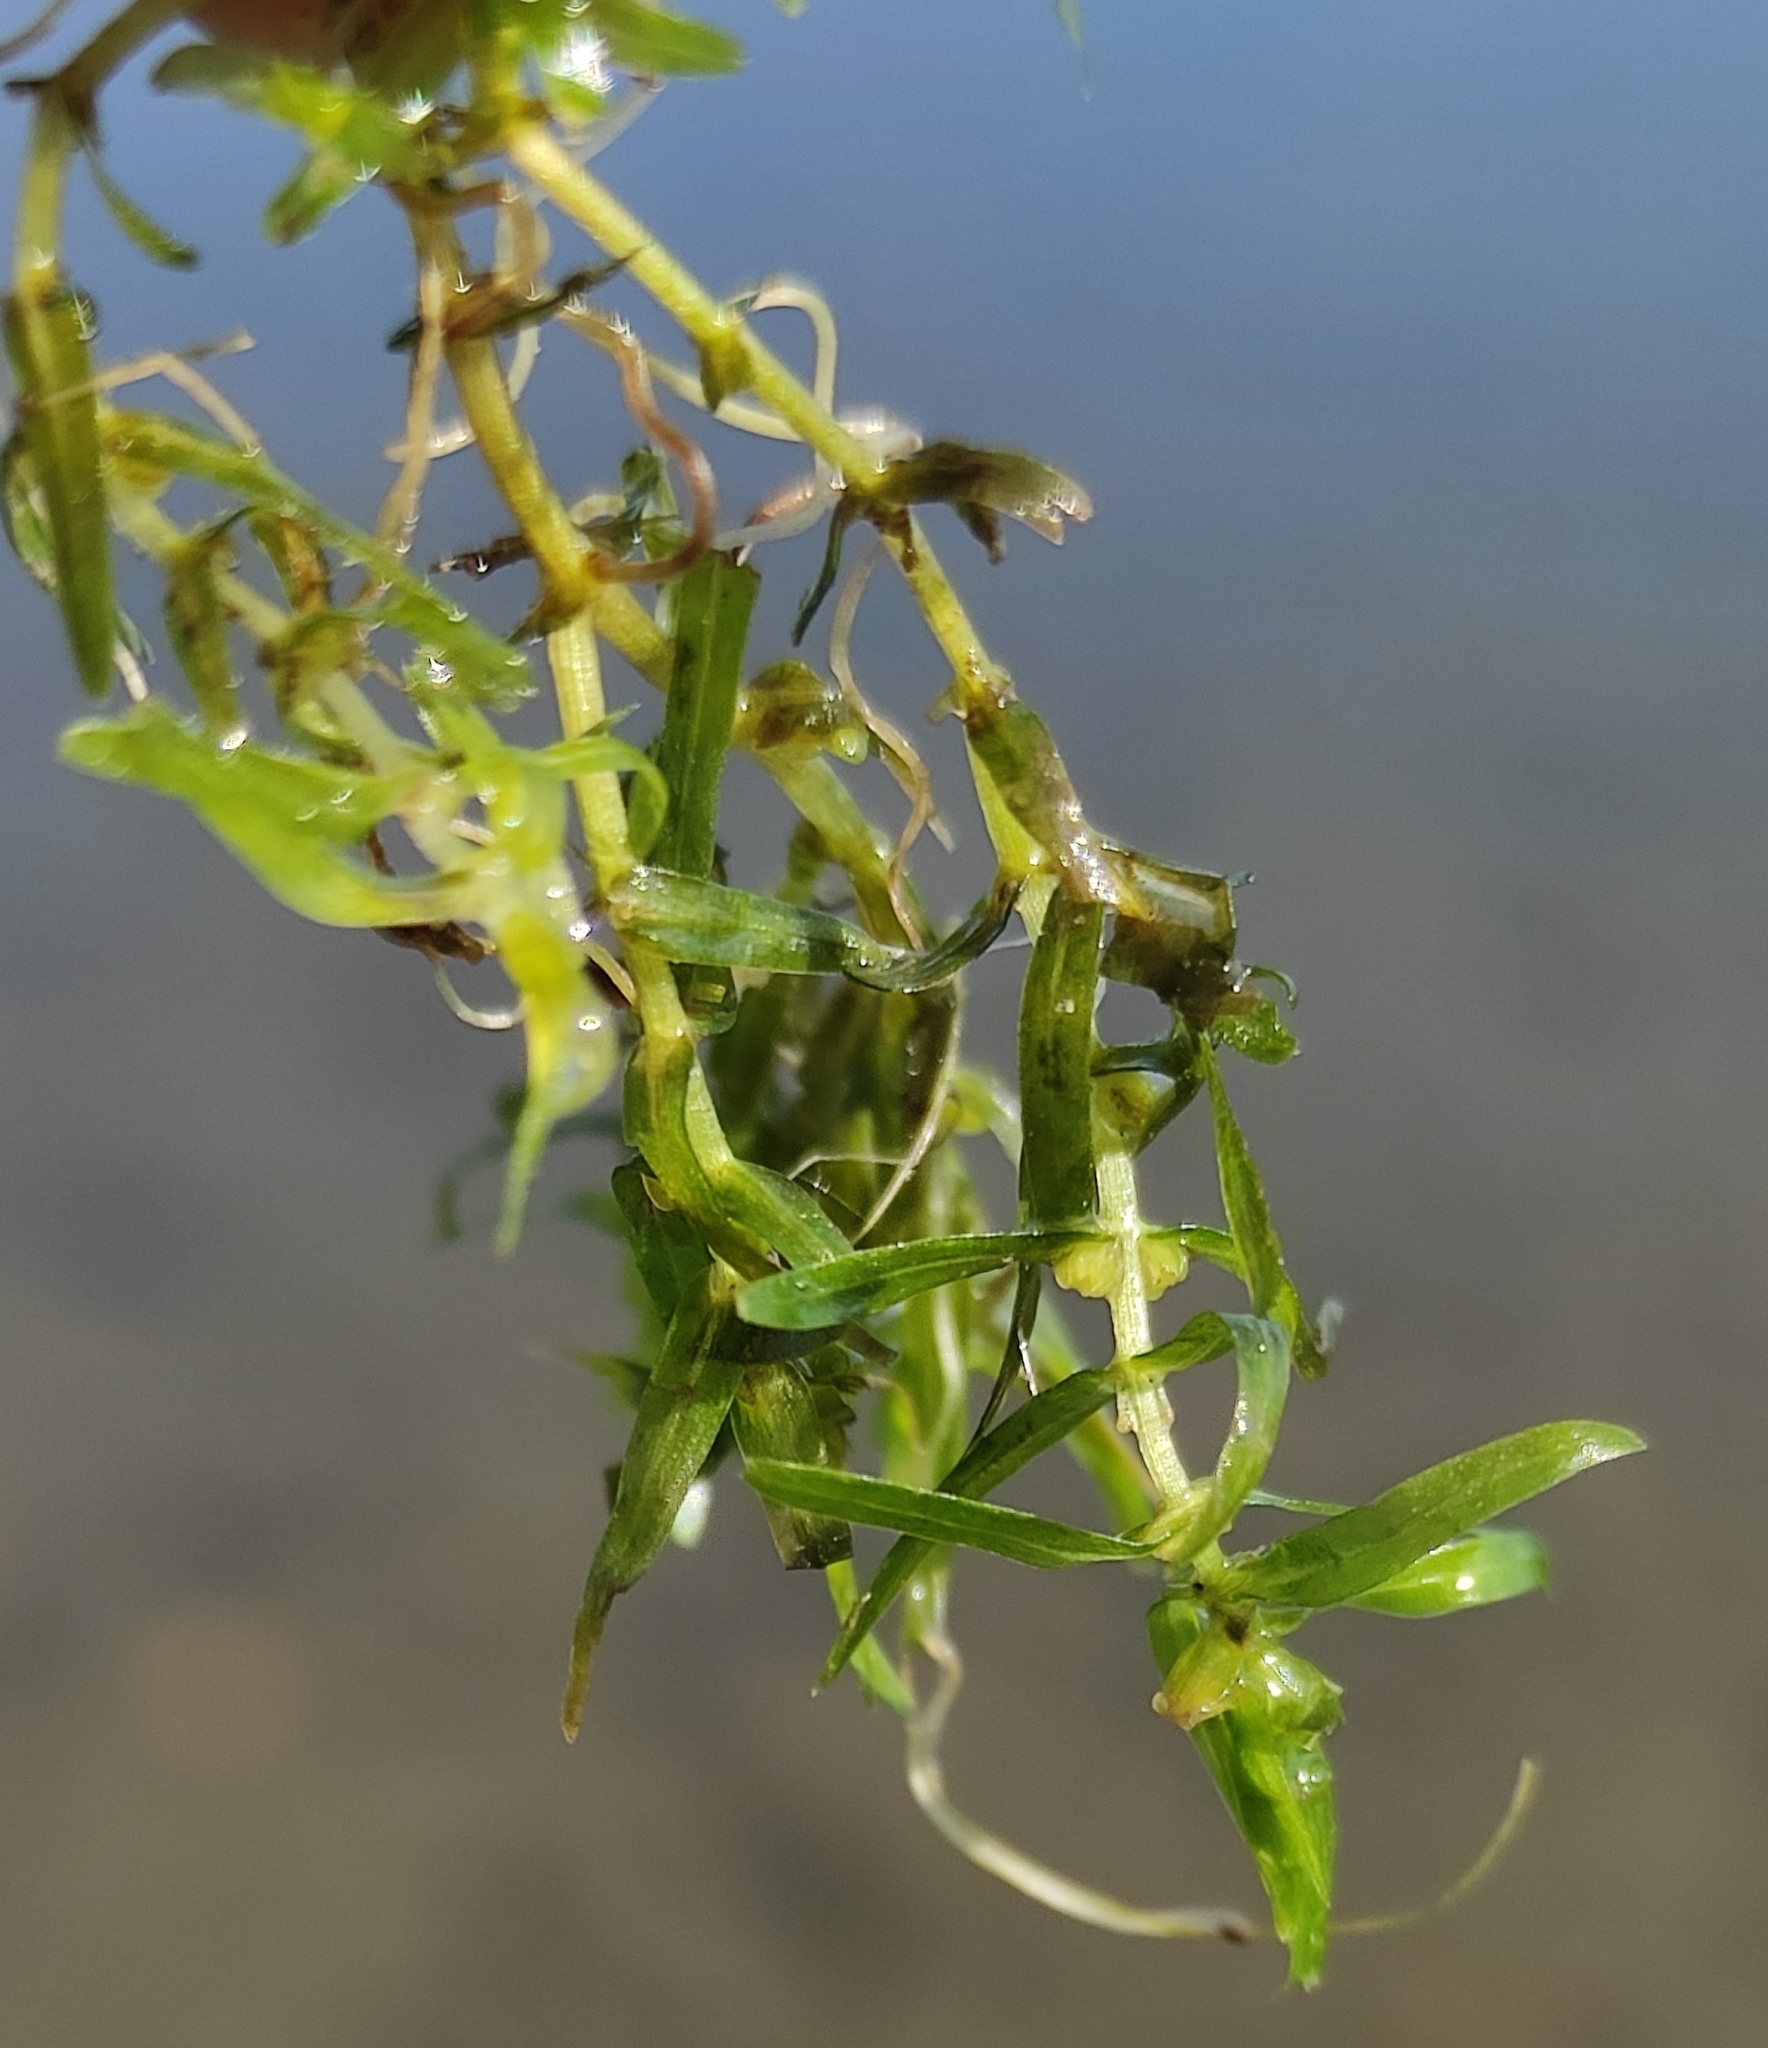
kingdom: Plantae
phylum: Tracheophyta
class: Magnoliopsida
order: Lamiales
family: Plantaginaceae
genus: Callitriche
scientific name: Callitriche hermaphroditica
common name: Autumnal water-starwort
